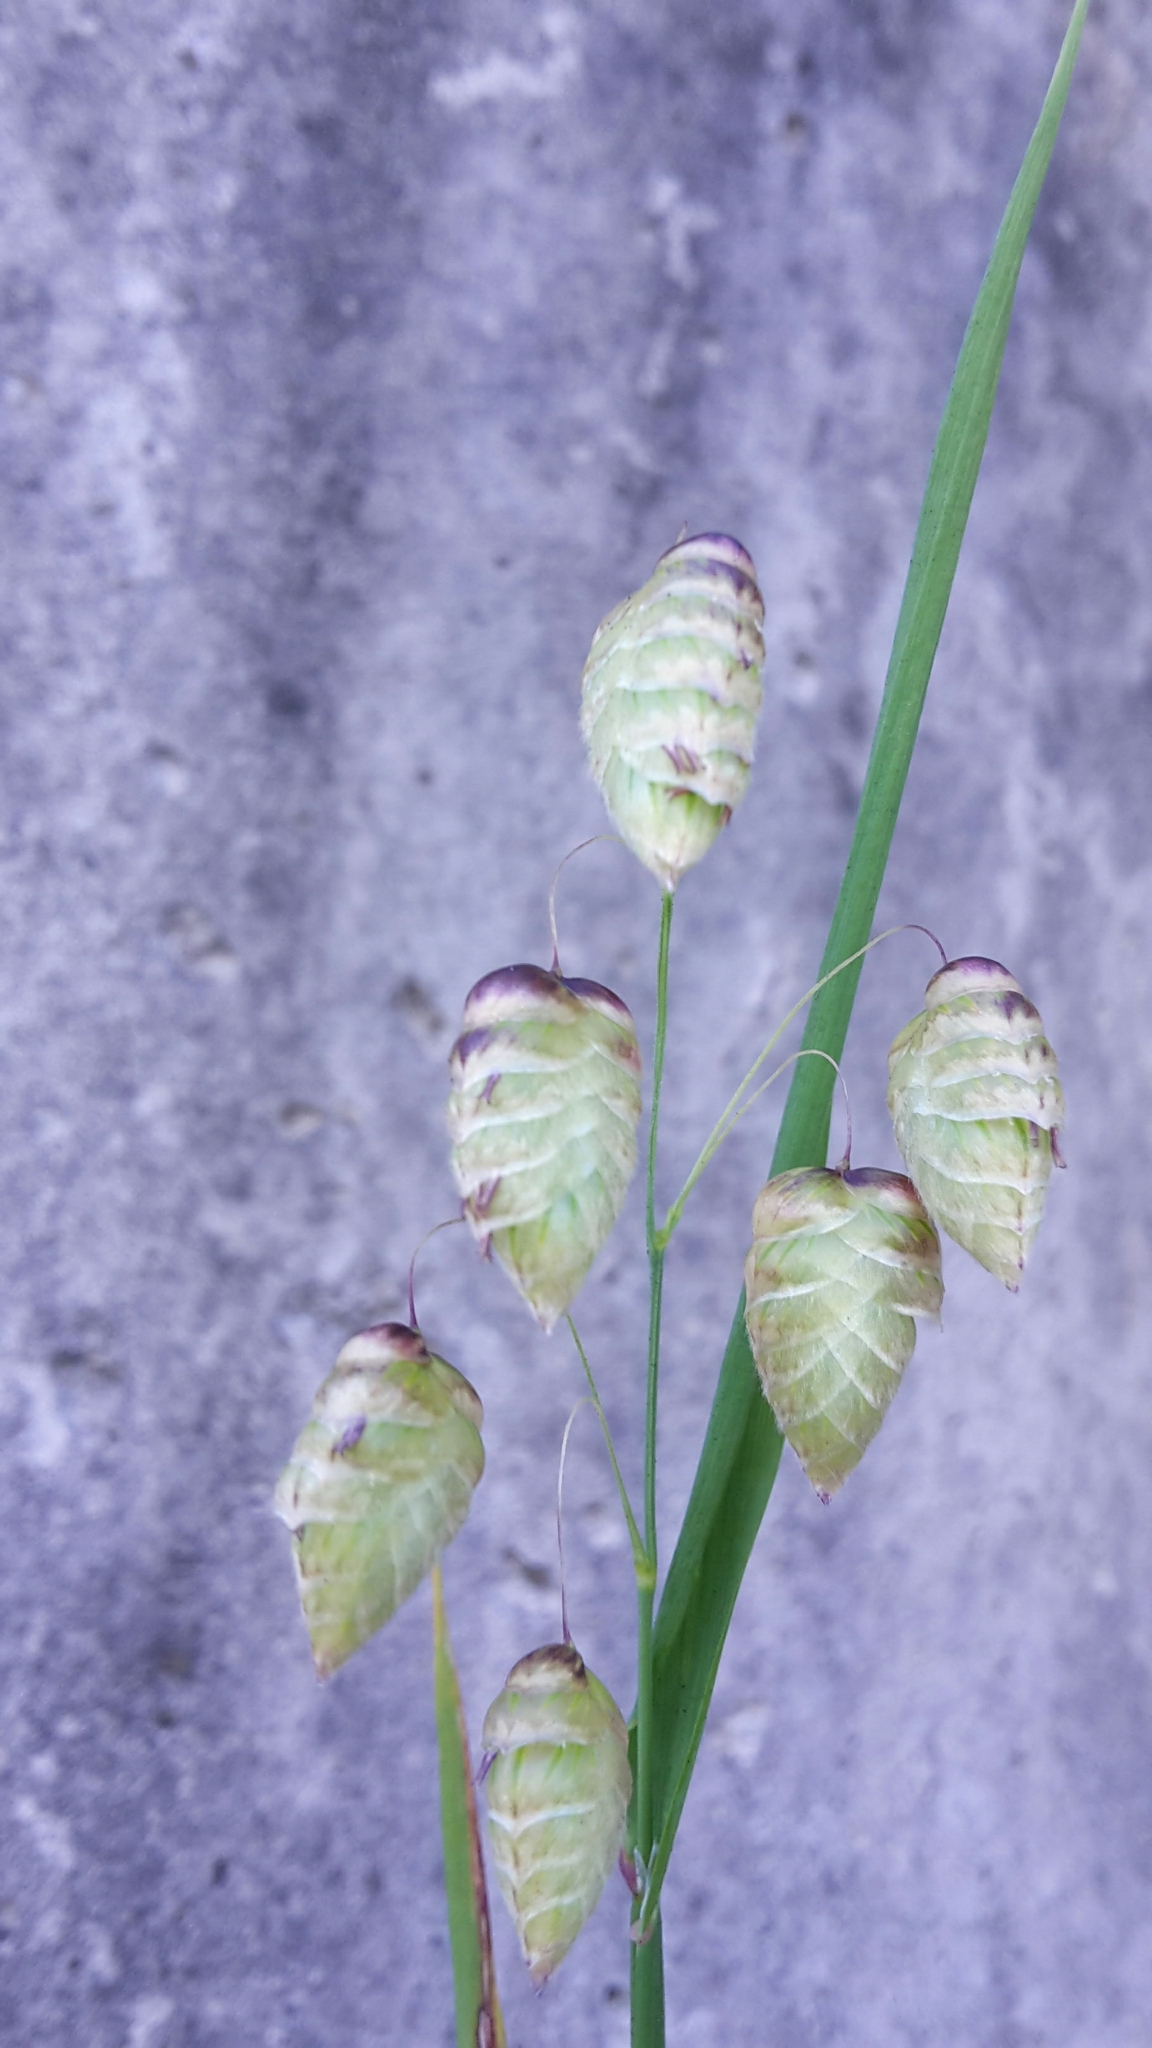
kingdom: Plantae
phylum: Tracheophyta
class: Liliopsida
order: Poales
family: Poaceae
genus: Briza
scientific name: Briza maxima
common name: Big quakinggrass
